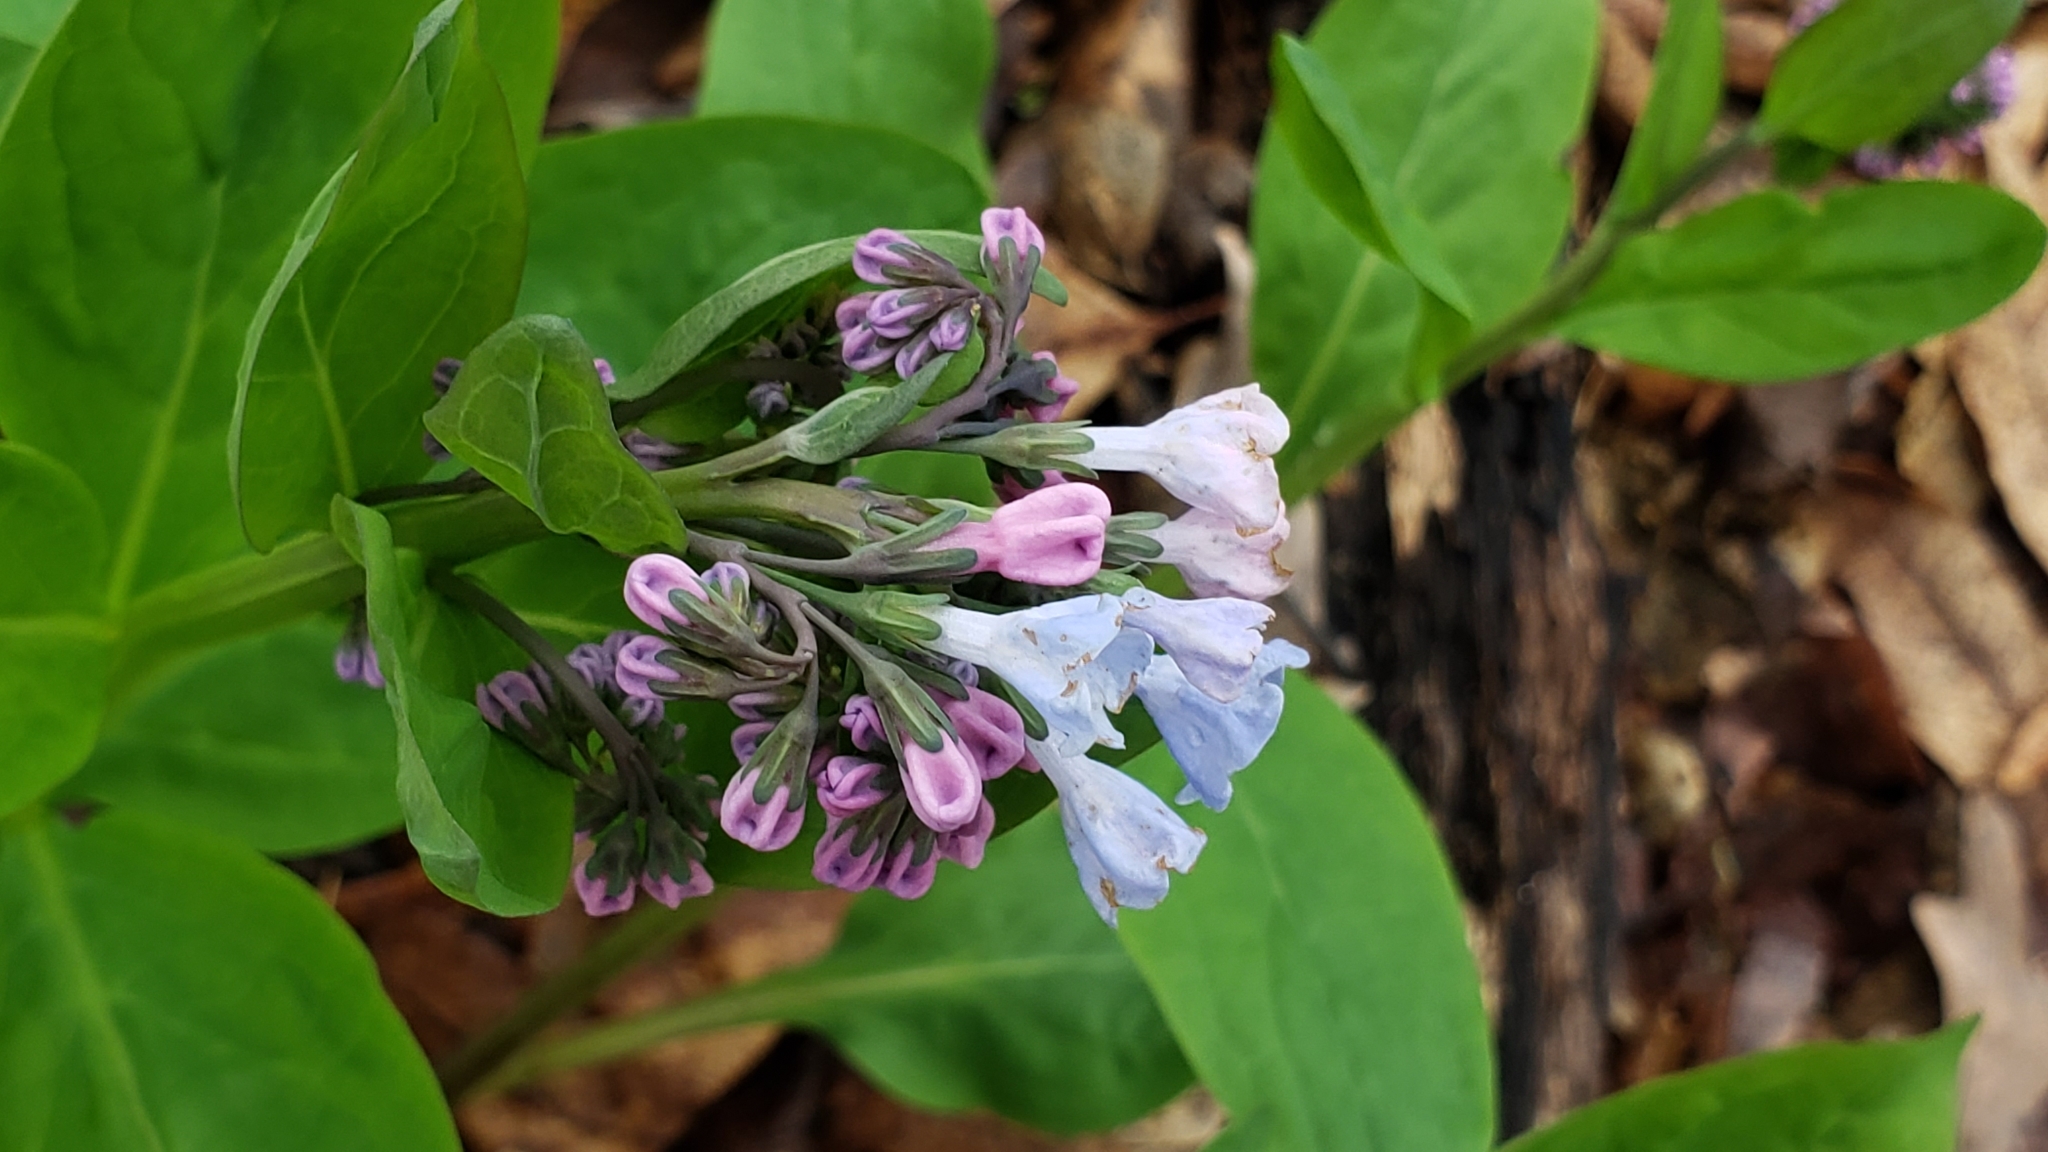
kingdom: Plantae
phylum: Tracheophyta
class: Magnoliopsida
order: Boraginales
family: Boraginaceae
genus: Mertensia
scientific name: Mertensia virginica
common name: Virginia bluebells
